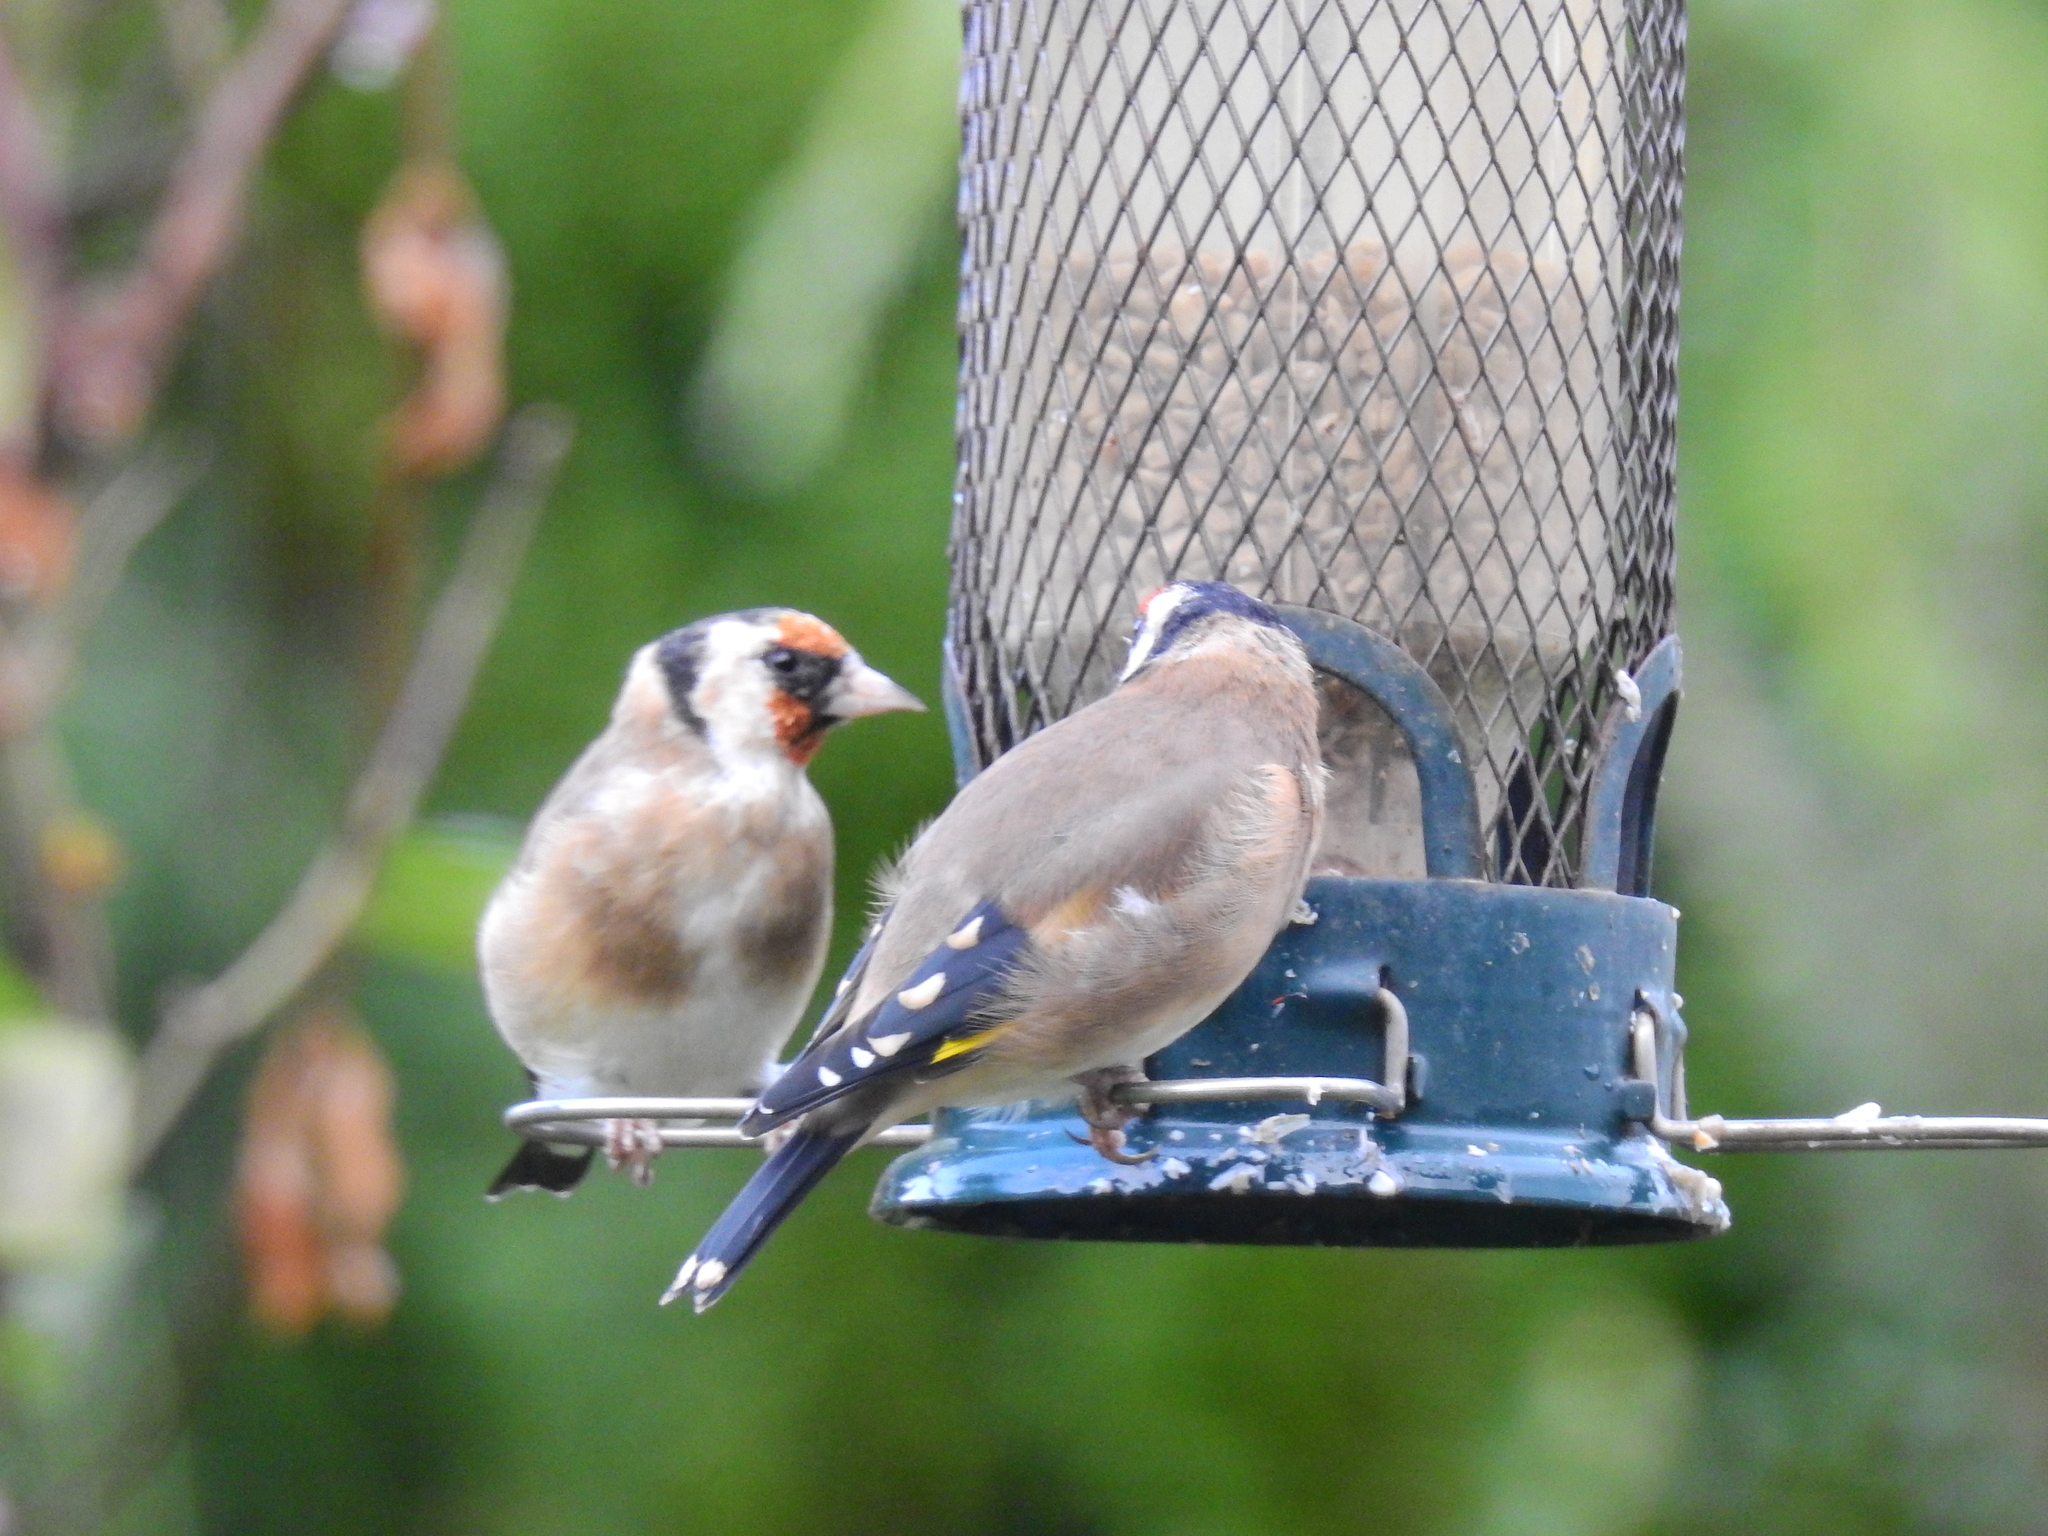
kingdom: Animalia
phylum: Chordata
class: Aves
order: Passeriformes
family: Fringillidae
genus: Carduelis
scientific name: Carduelis carduelis
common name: European goldfinch
